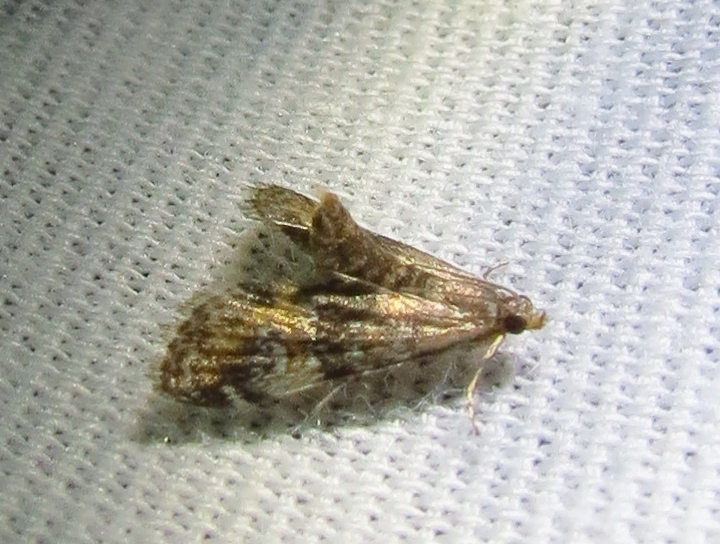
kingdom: Animalia
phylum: Arthropoda
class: Insecta
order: Lepidoptera
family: Crambidae
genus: Elophila
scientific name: Elophila obliteralis
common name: Waterlily leafcutter moth
